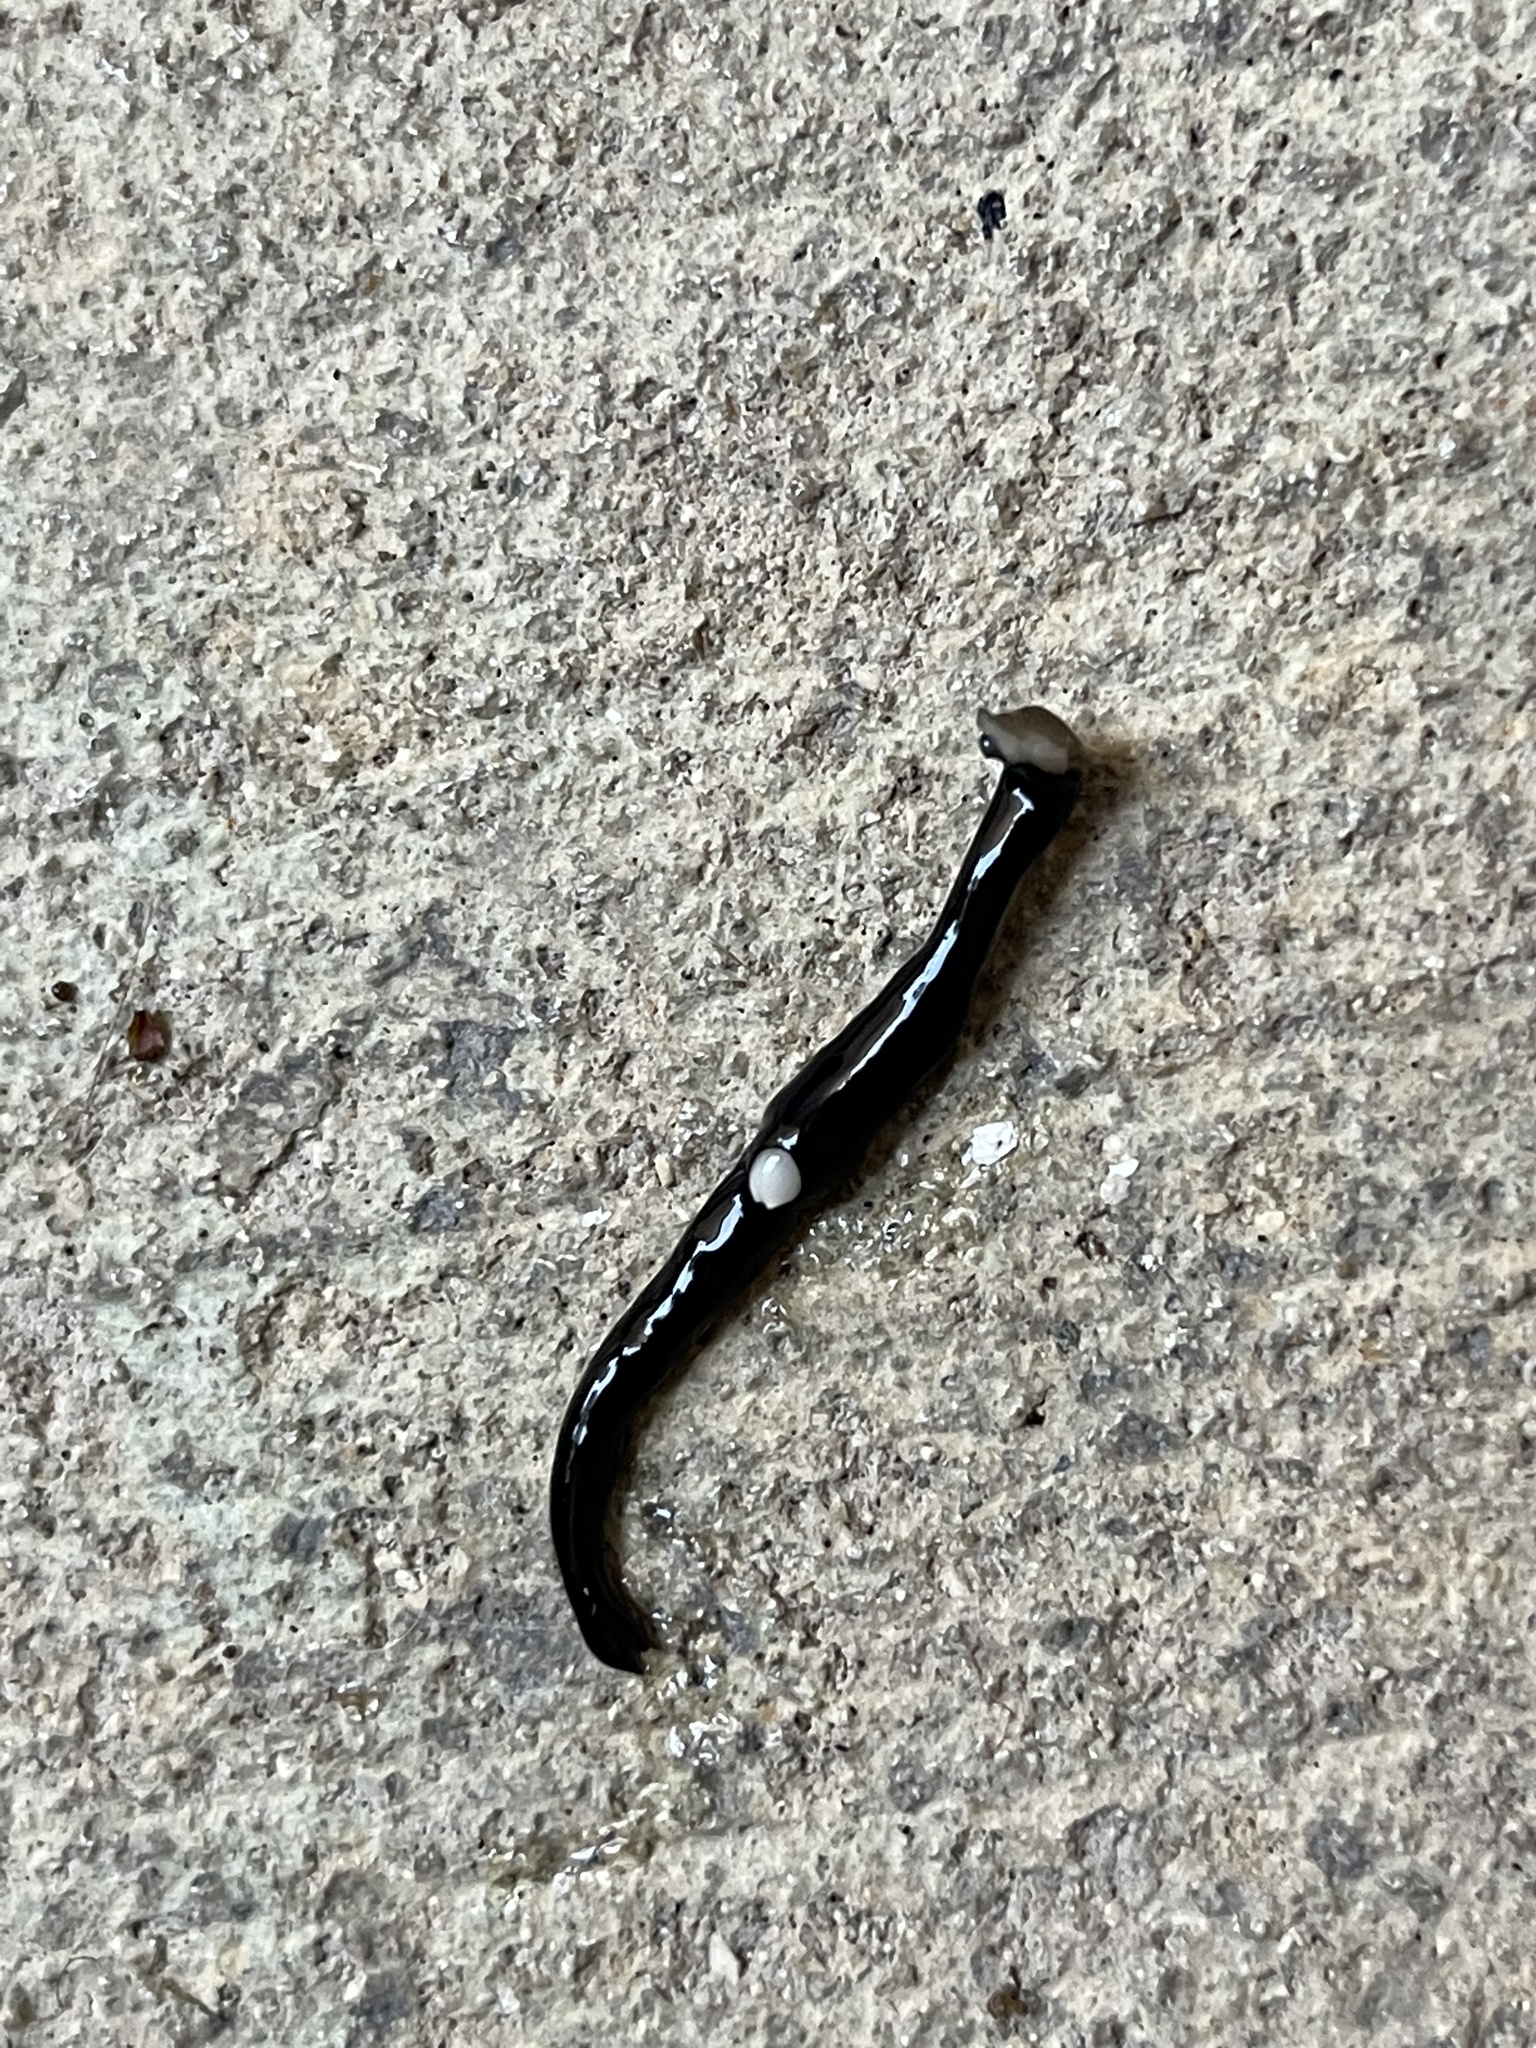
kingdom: Animalia
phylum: Platyhelminthes
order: Tricladida
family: Geoplanidae
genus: Platydemus
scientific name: Platydemus manokwari
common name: New guinea flatworm
